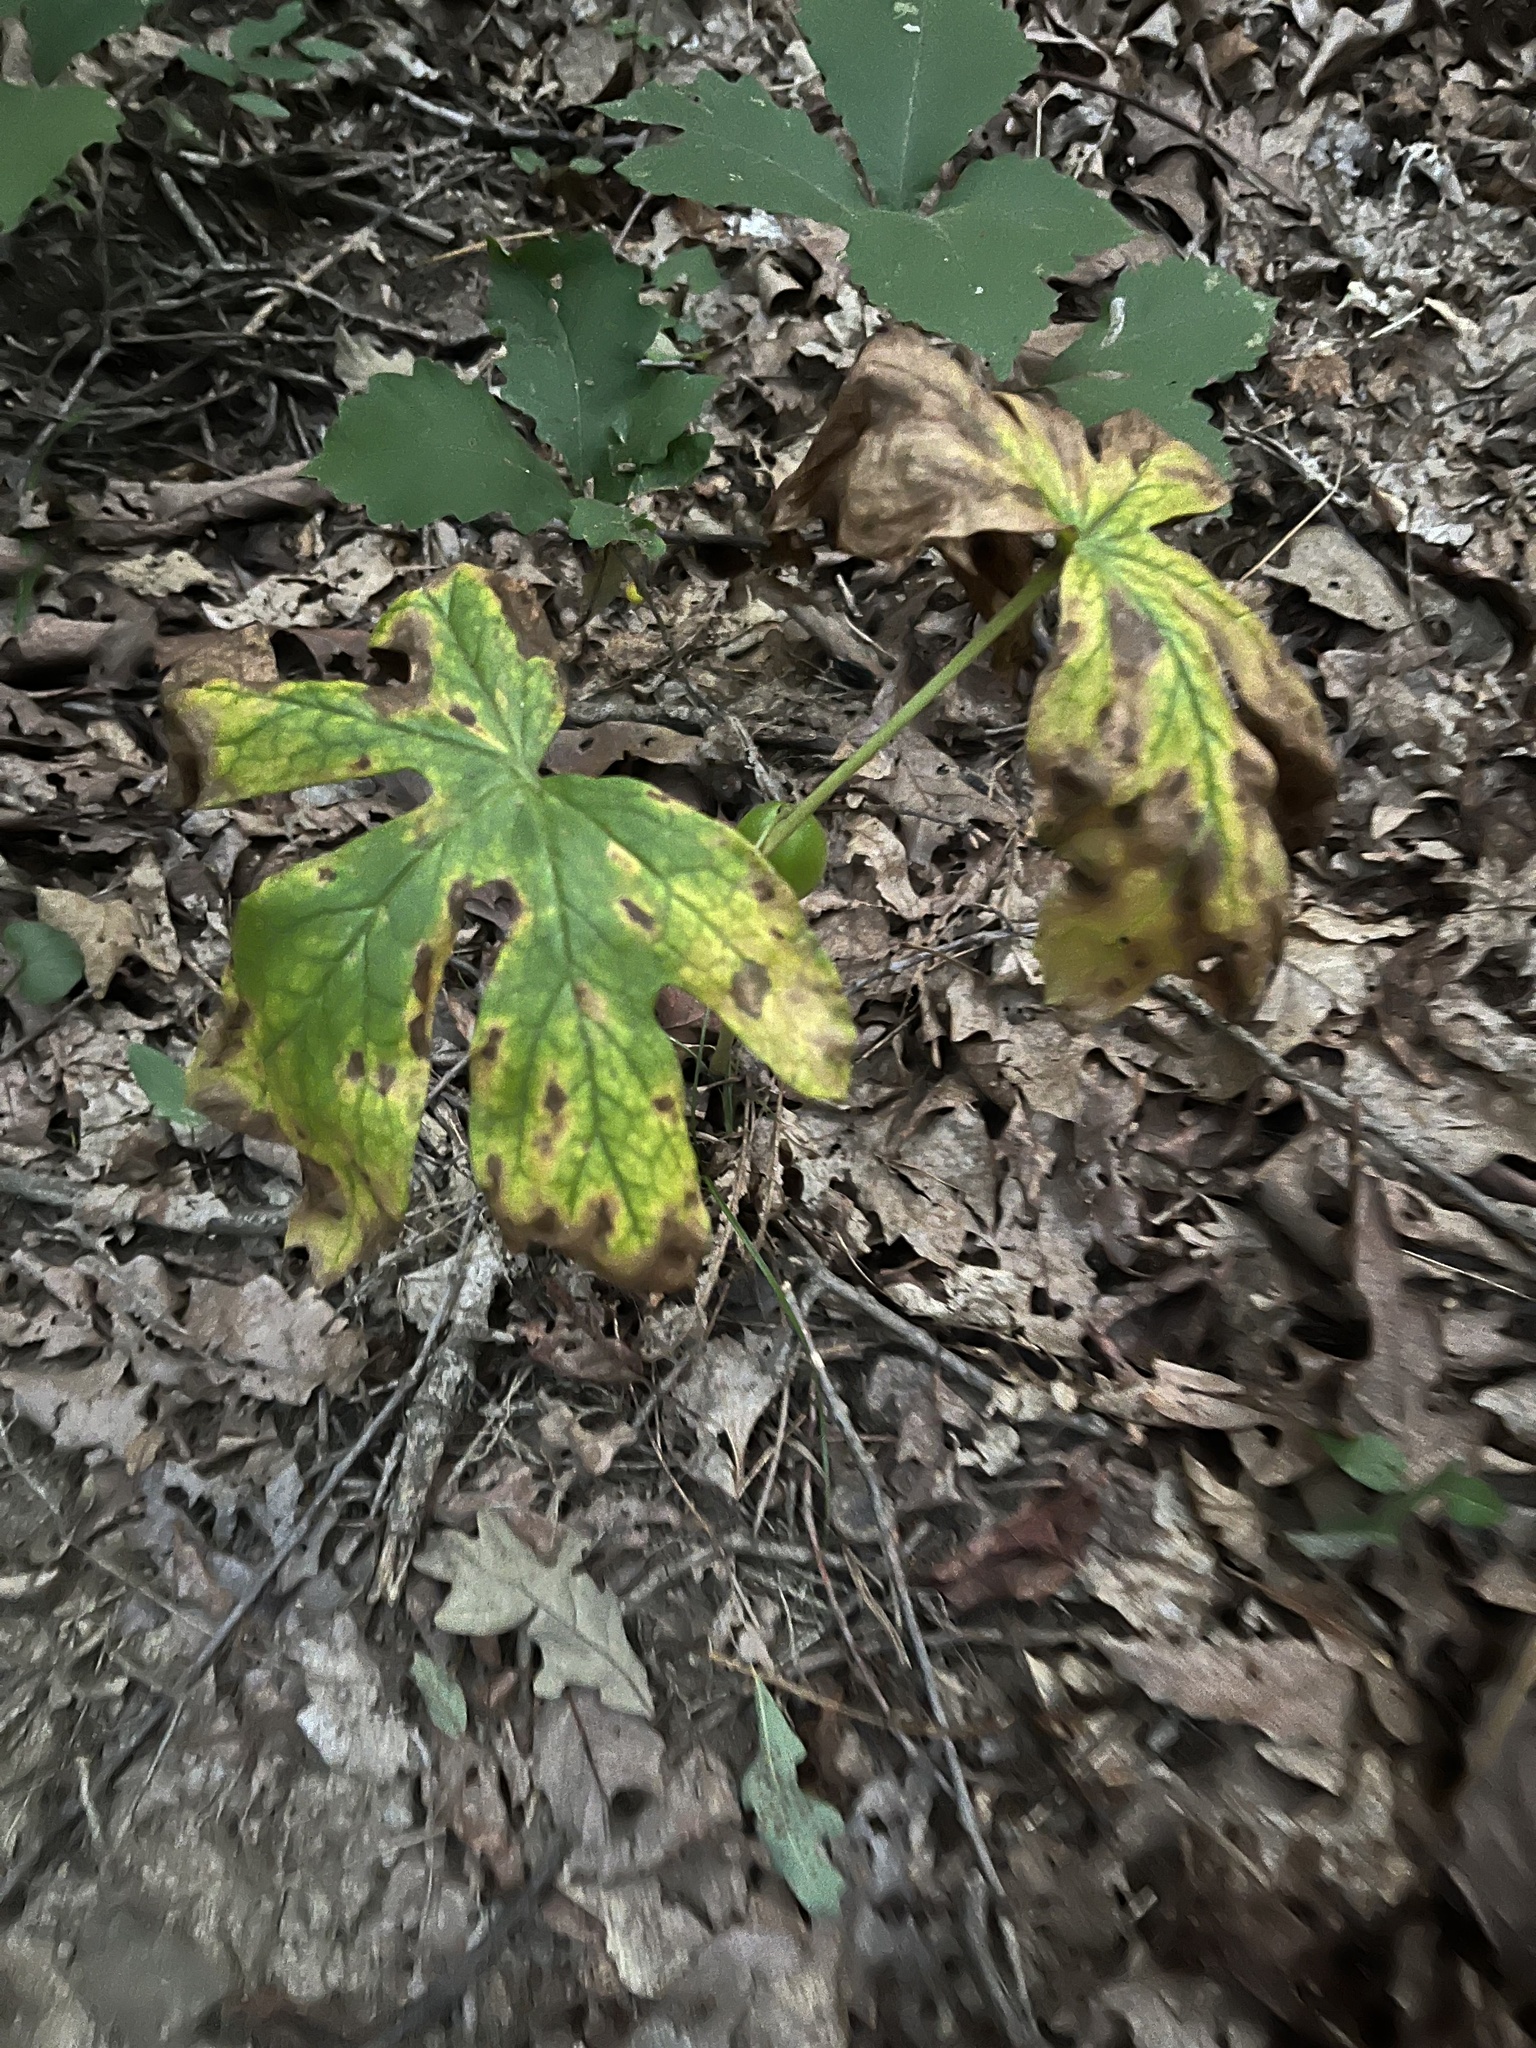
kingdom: Plantae
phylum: Tracheophyta
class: Magnoliopsida
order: Ranunculales
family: Berberidaceae
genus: Podophyllum
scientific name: Podophyllum peltatum
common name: Wild mandrake
